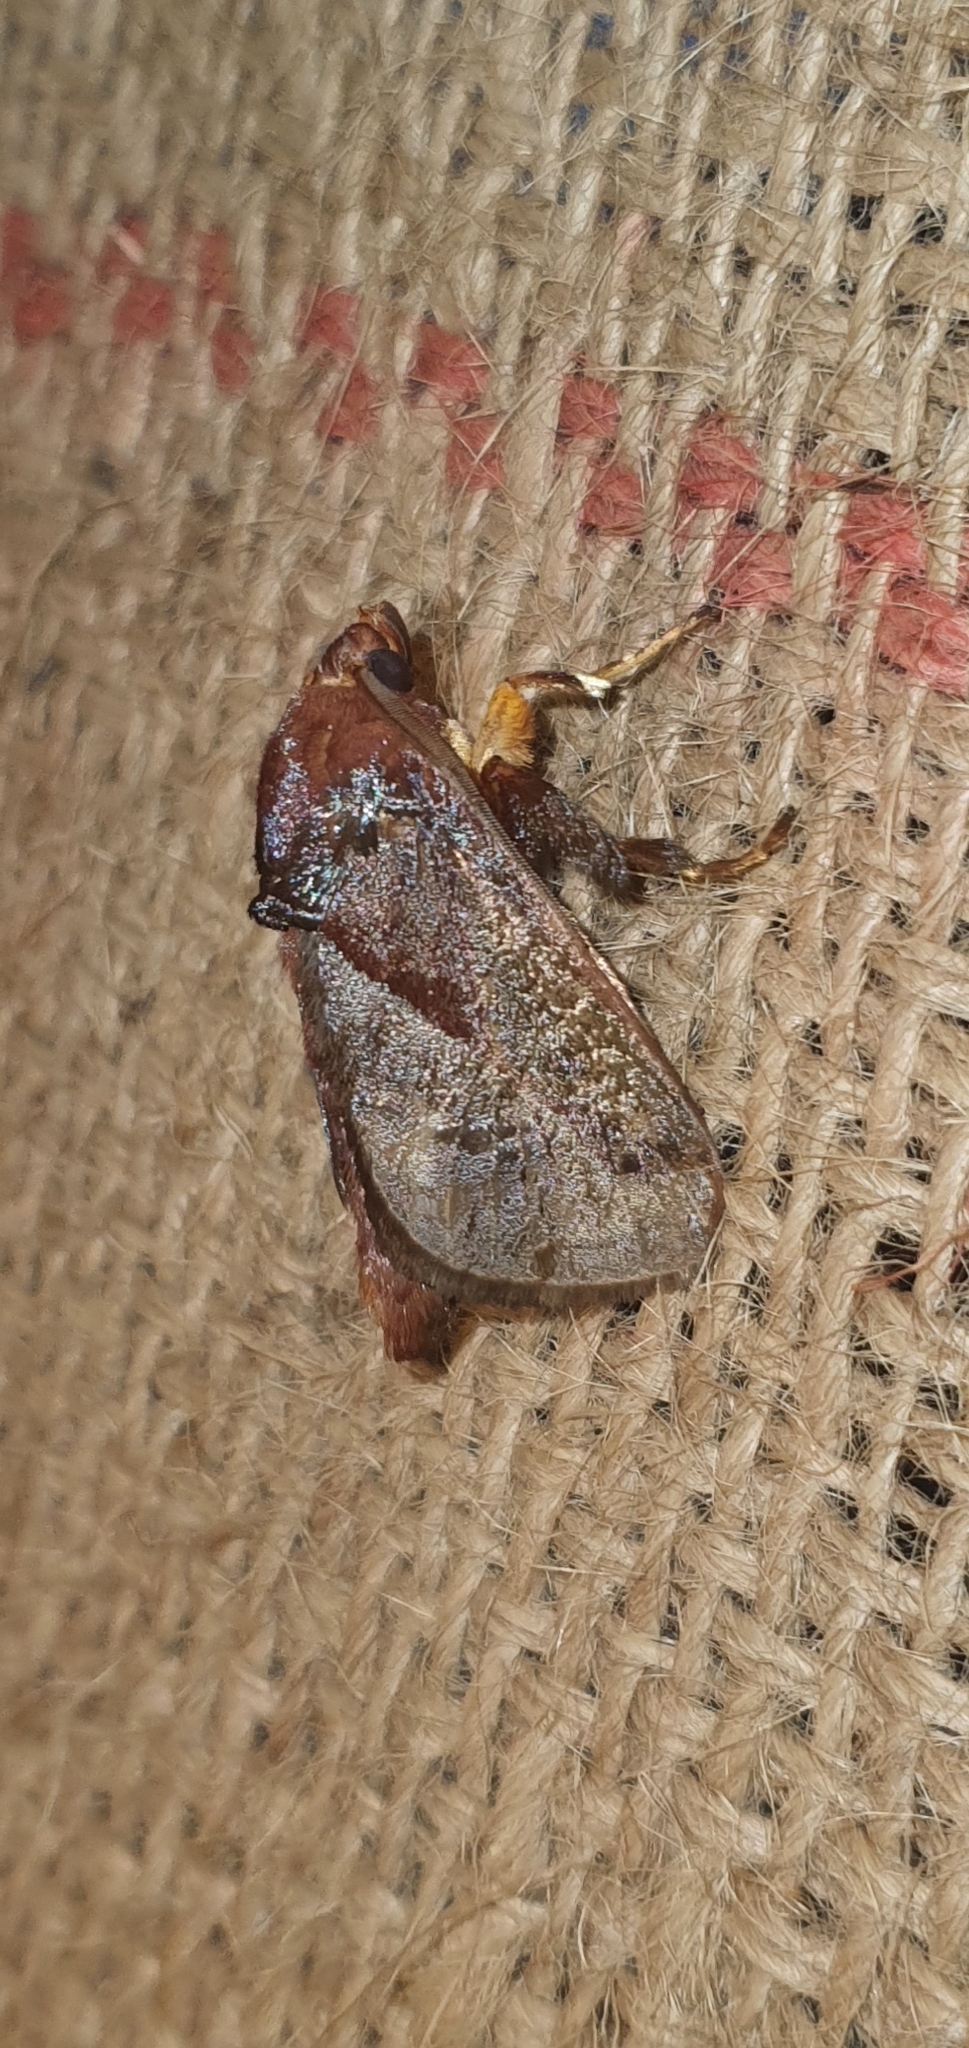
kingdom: Animalia
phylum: Arthropoda
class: Insecta
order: Lepidoptera
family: Limacodidae
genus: Phocoderma
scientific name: Phocoderma velutina
